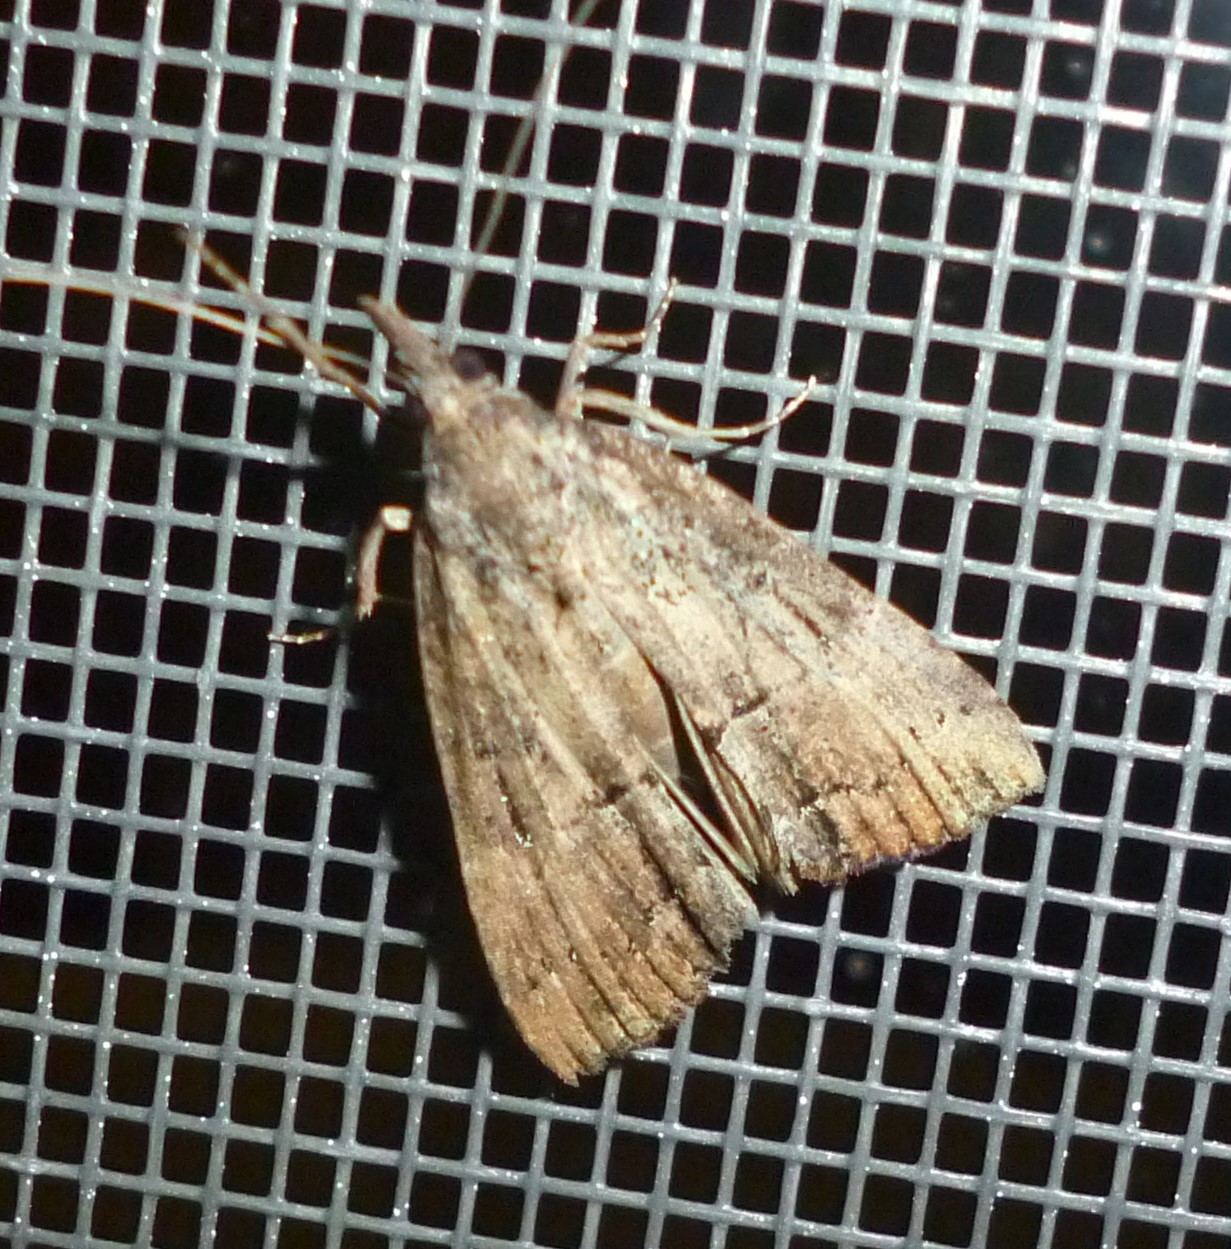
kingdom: Animalia
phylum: Arthropoda
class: Insecta
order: Lepidoptera
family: Erebidae
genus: Hypena
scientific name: Hypena scabra
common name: Green cloverworm
